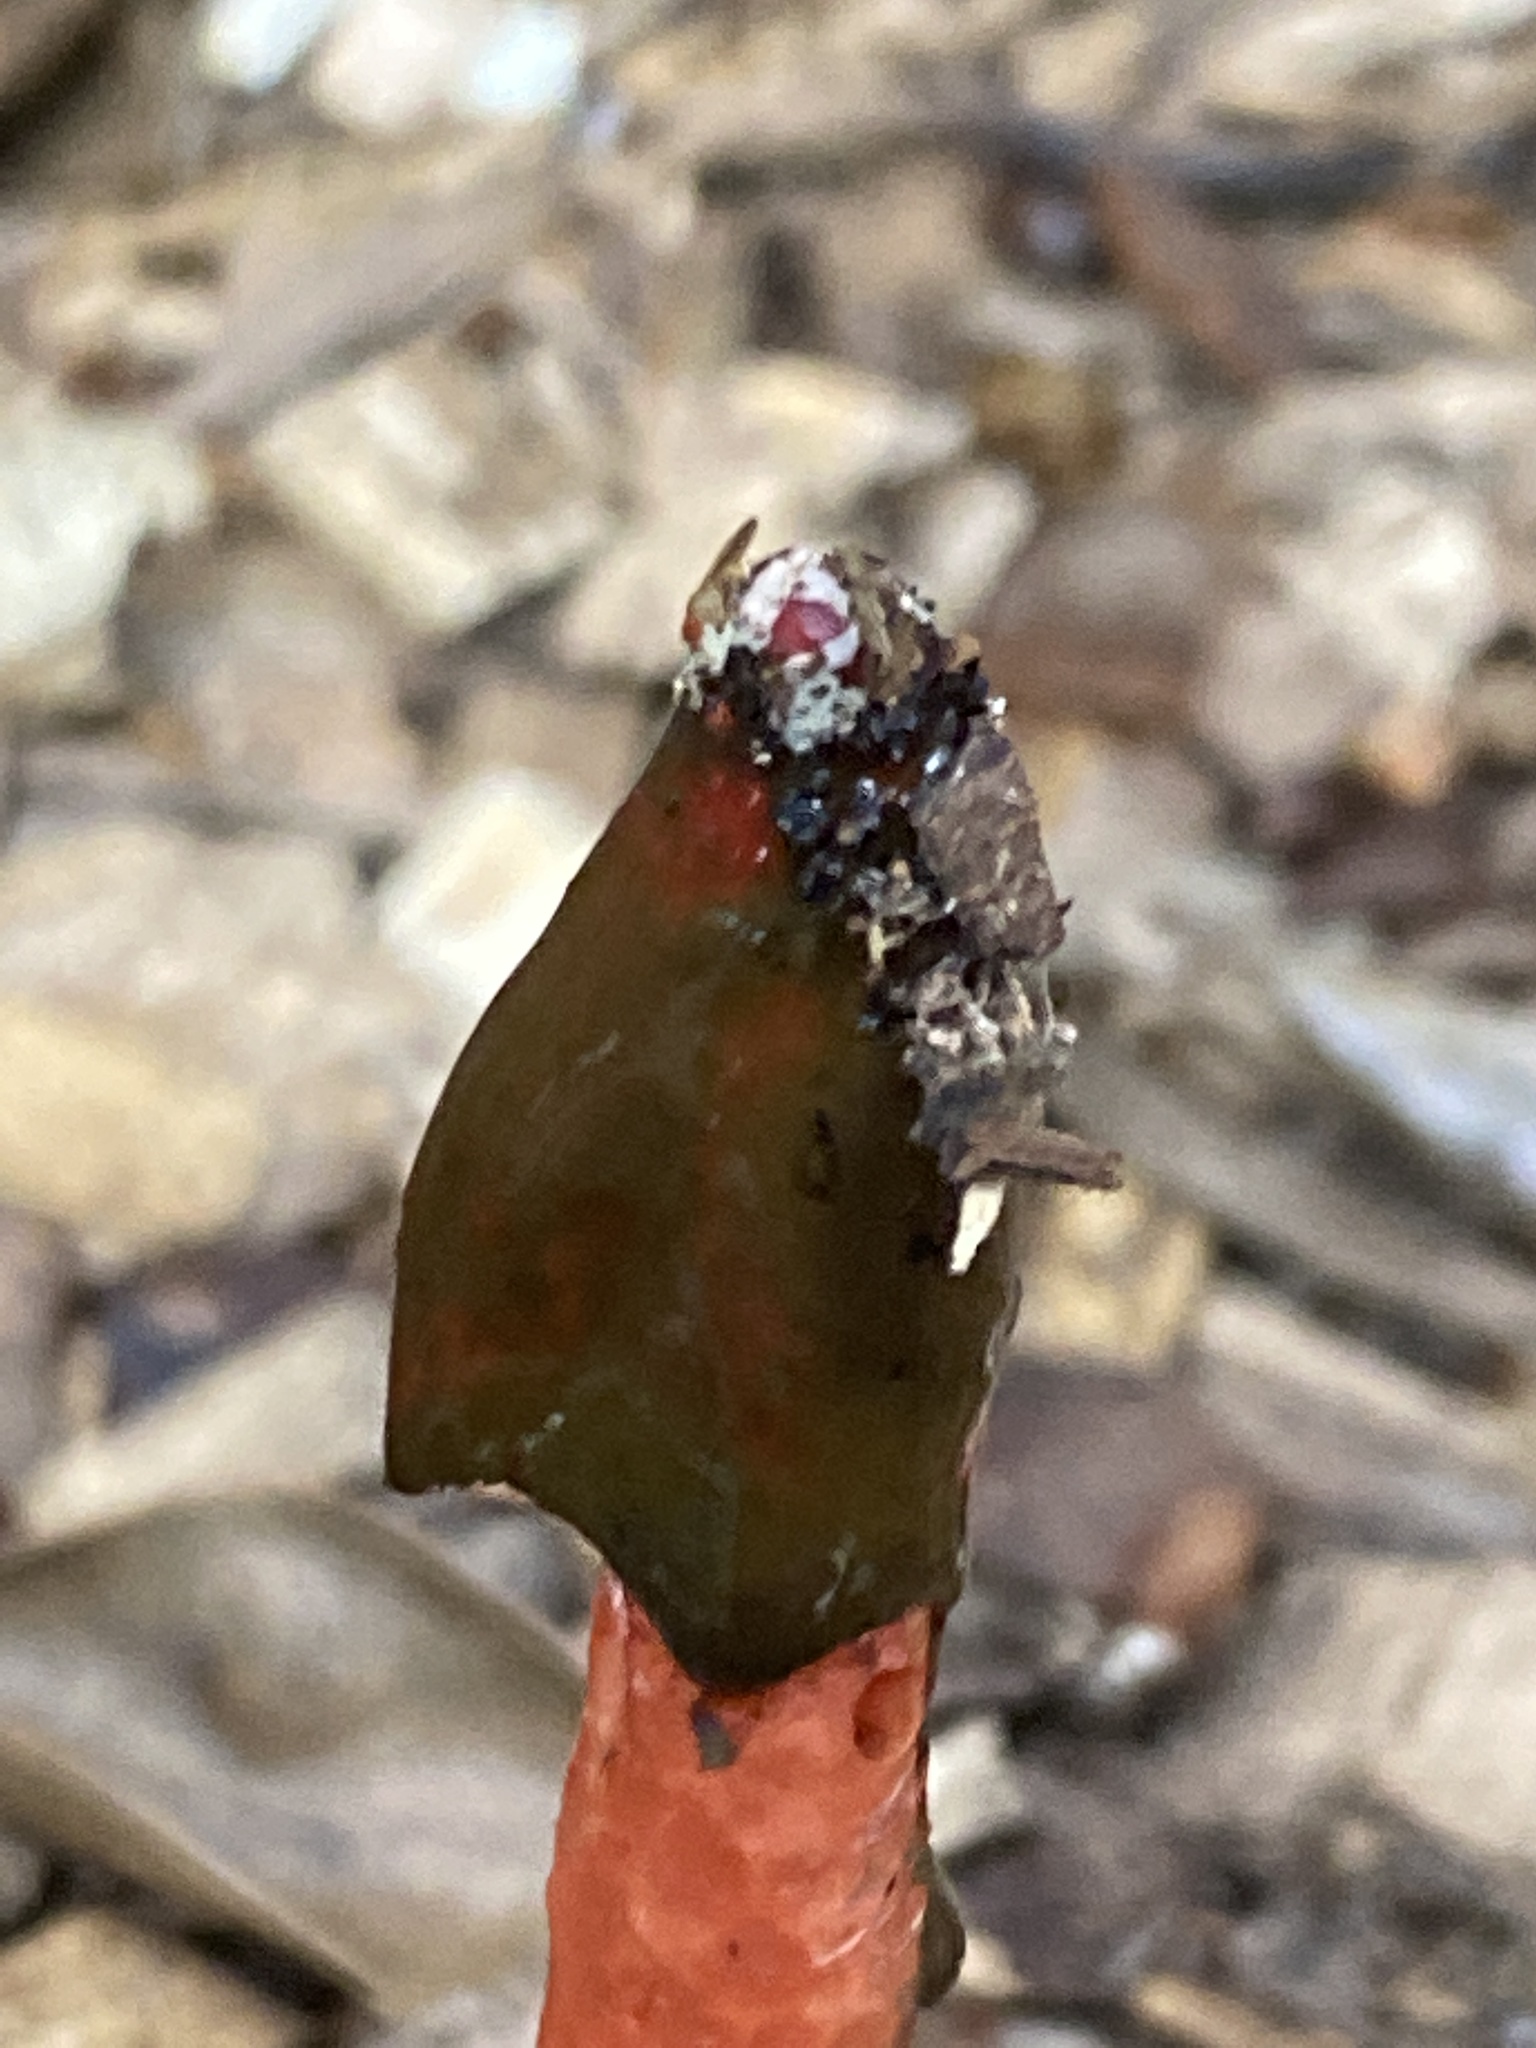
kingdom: Fungi
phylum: Basidiomycota
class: Agaricomycetes
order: Phallales
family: Phallaceae
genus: Phallus
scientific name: Phallus rugulosus
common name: Wrinkly stinkhorn
